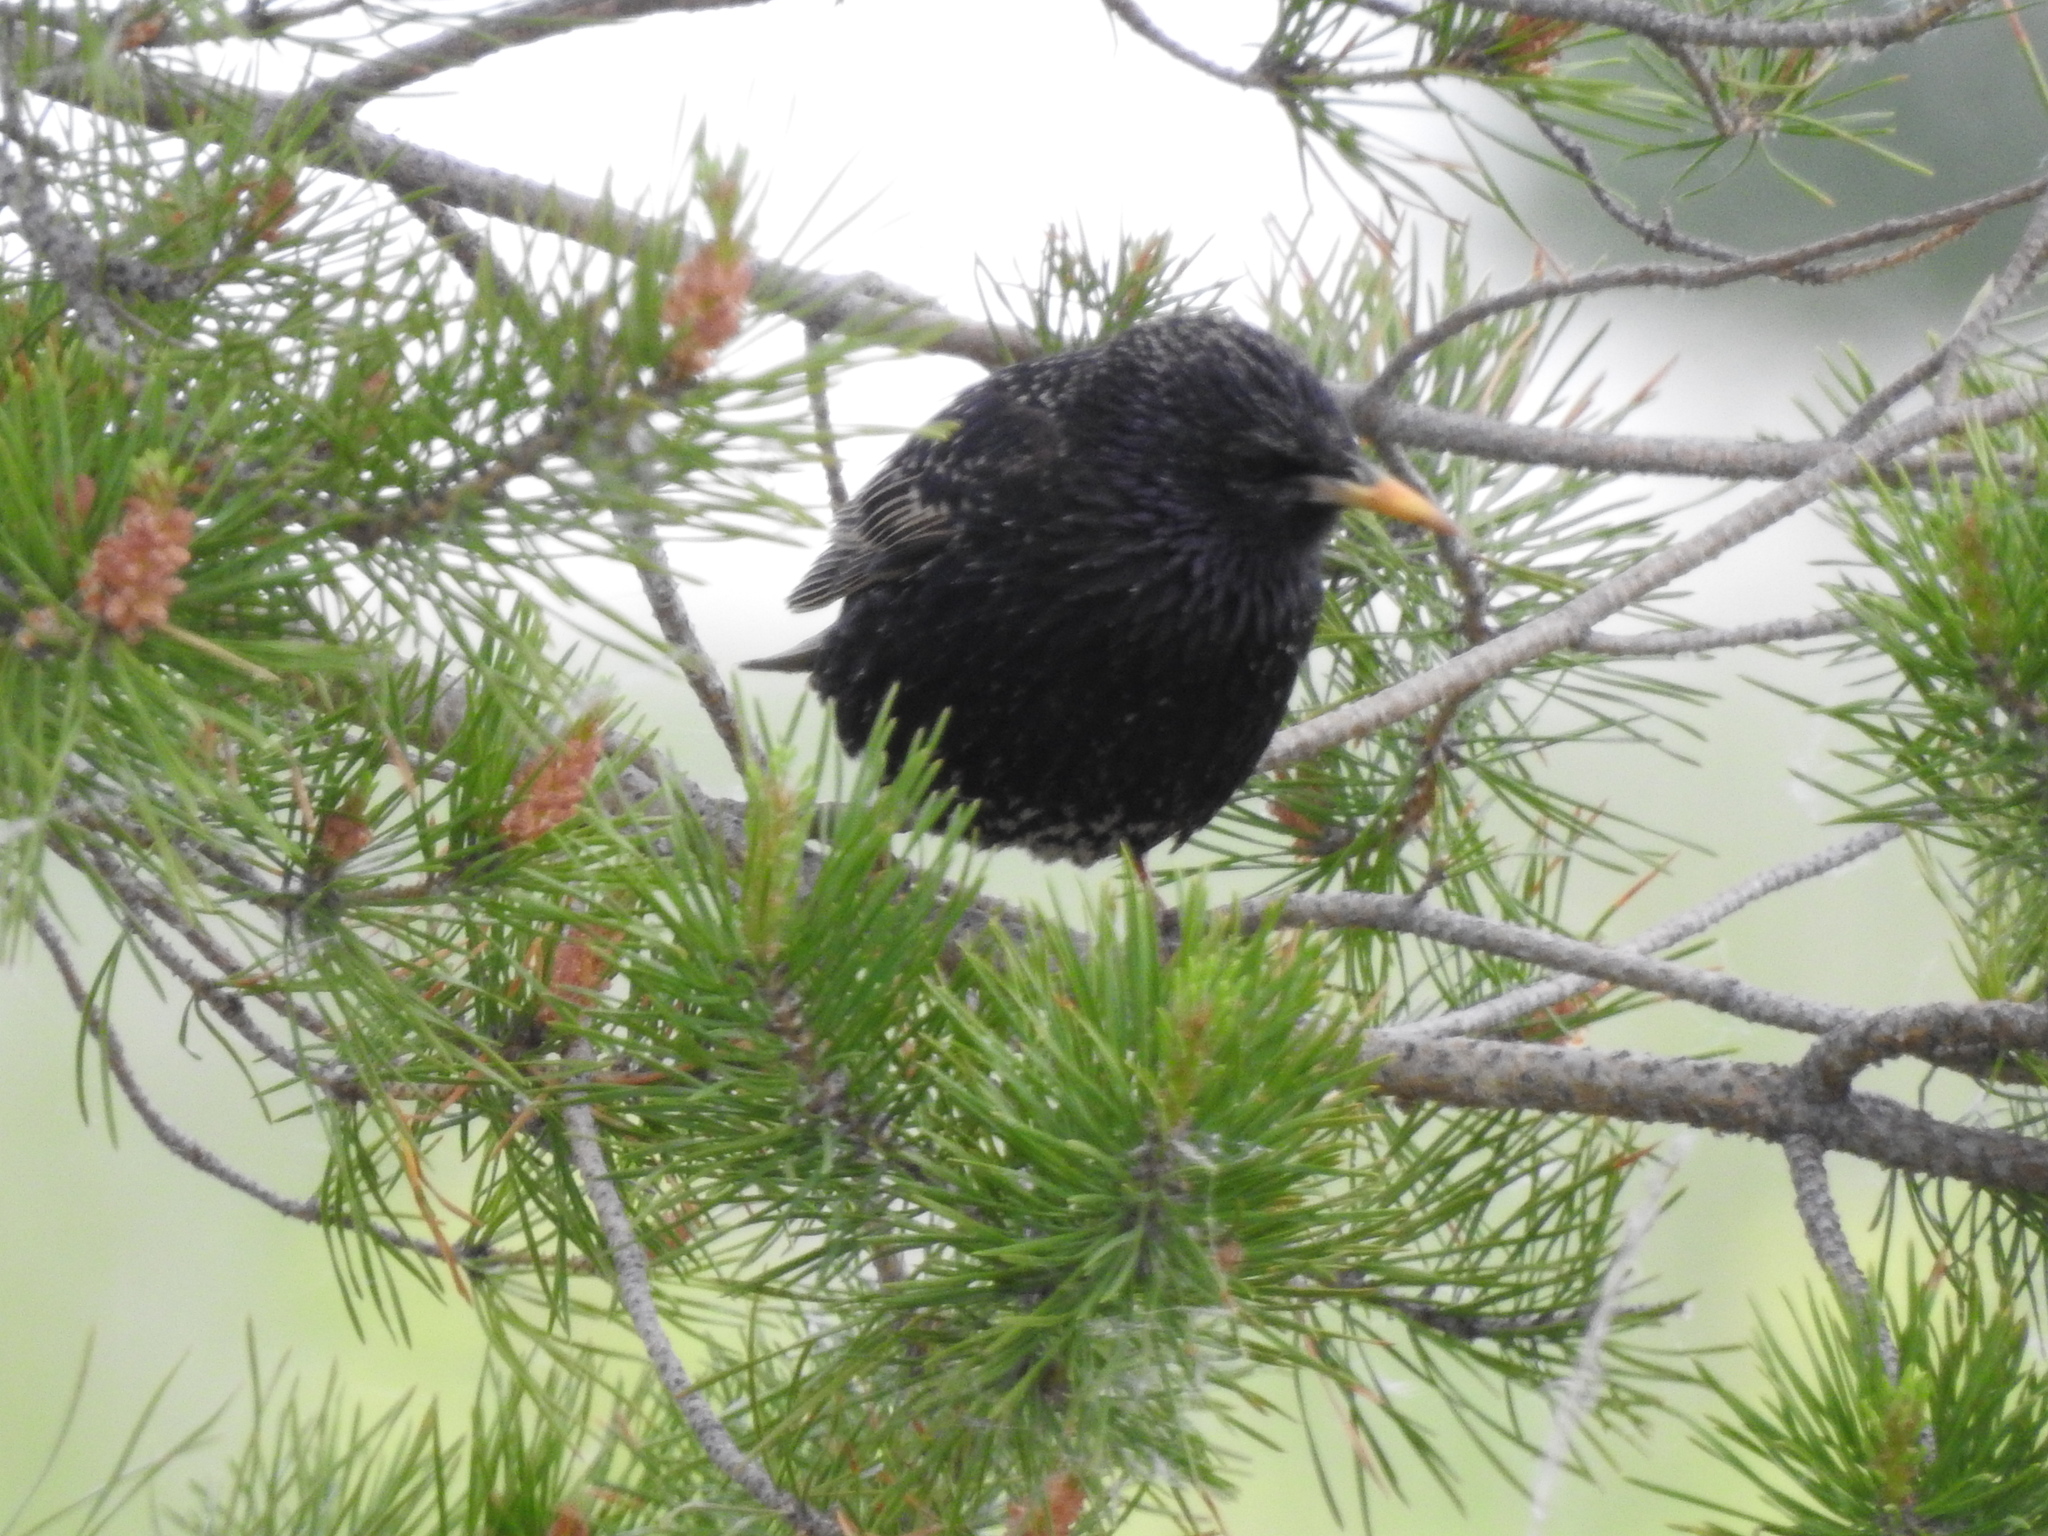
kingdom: Animalia
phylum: Chordata
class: Aves
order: Passeriformes
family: Sturnidae
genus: Sturnus
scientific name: Sturnus vulgaris
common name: Common starling
